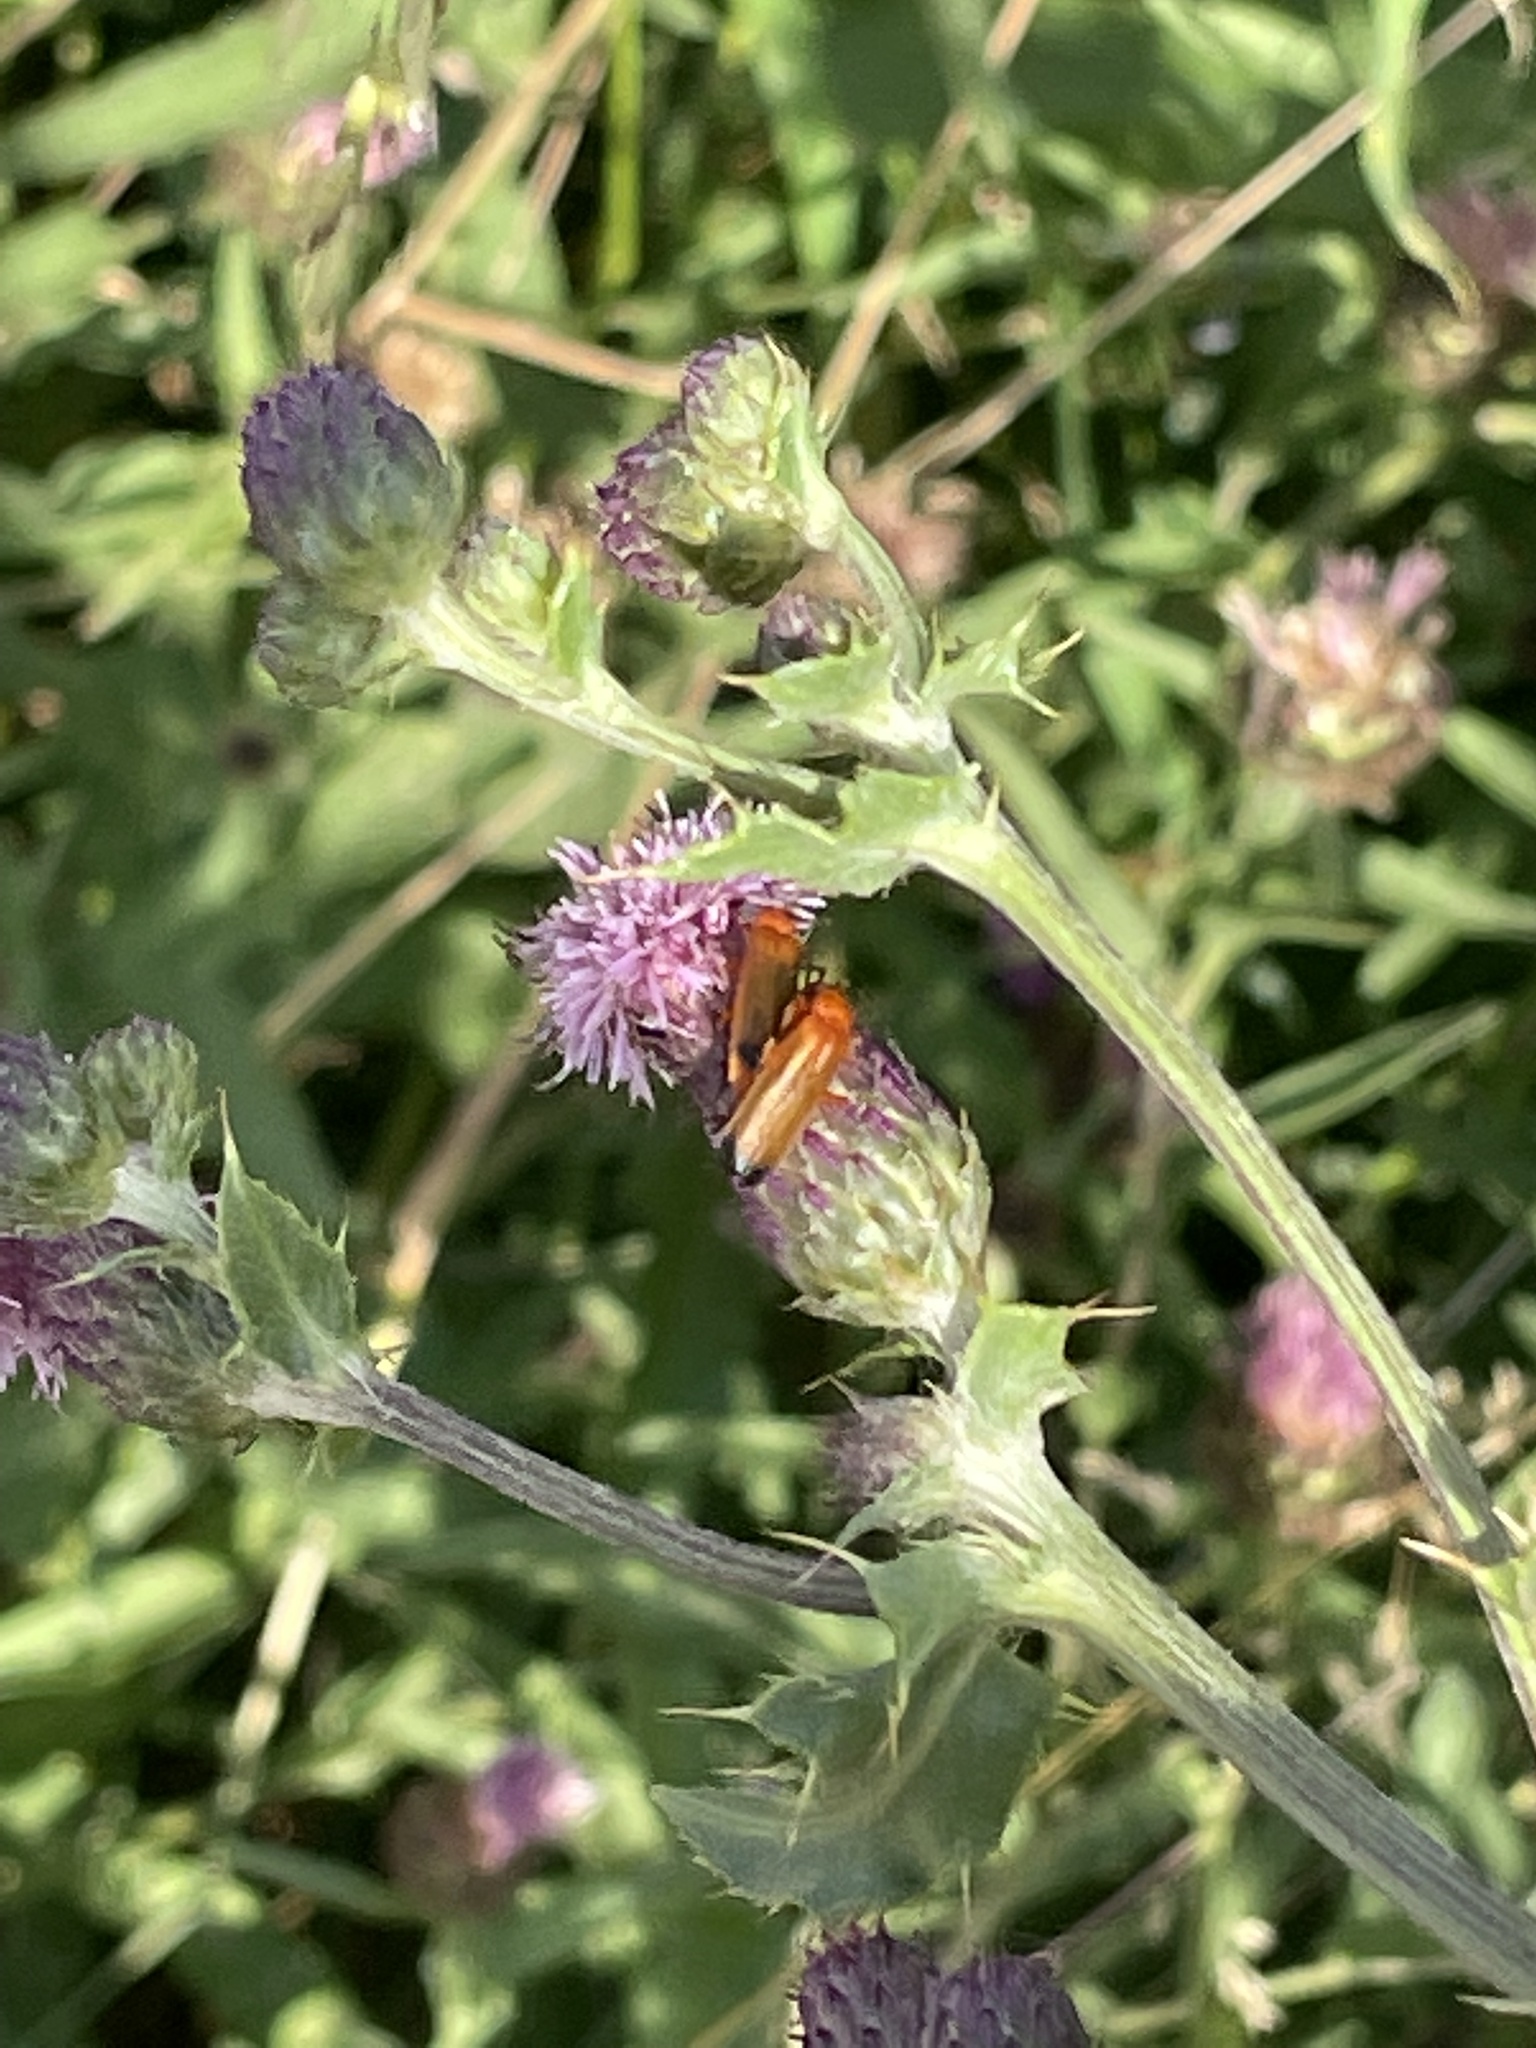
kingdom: Animalia
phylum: Arthropoda
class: Insecta
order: Coleoptera
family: Cantharidae
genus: Rhagonycha
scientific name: Rhagonycha fulva
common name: Common red soldier beetle
